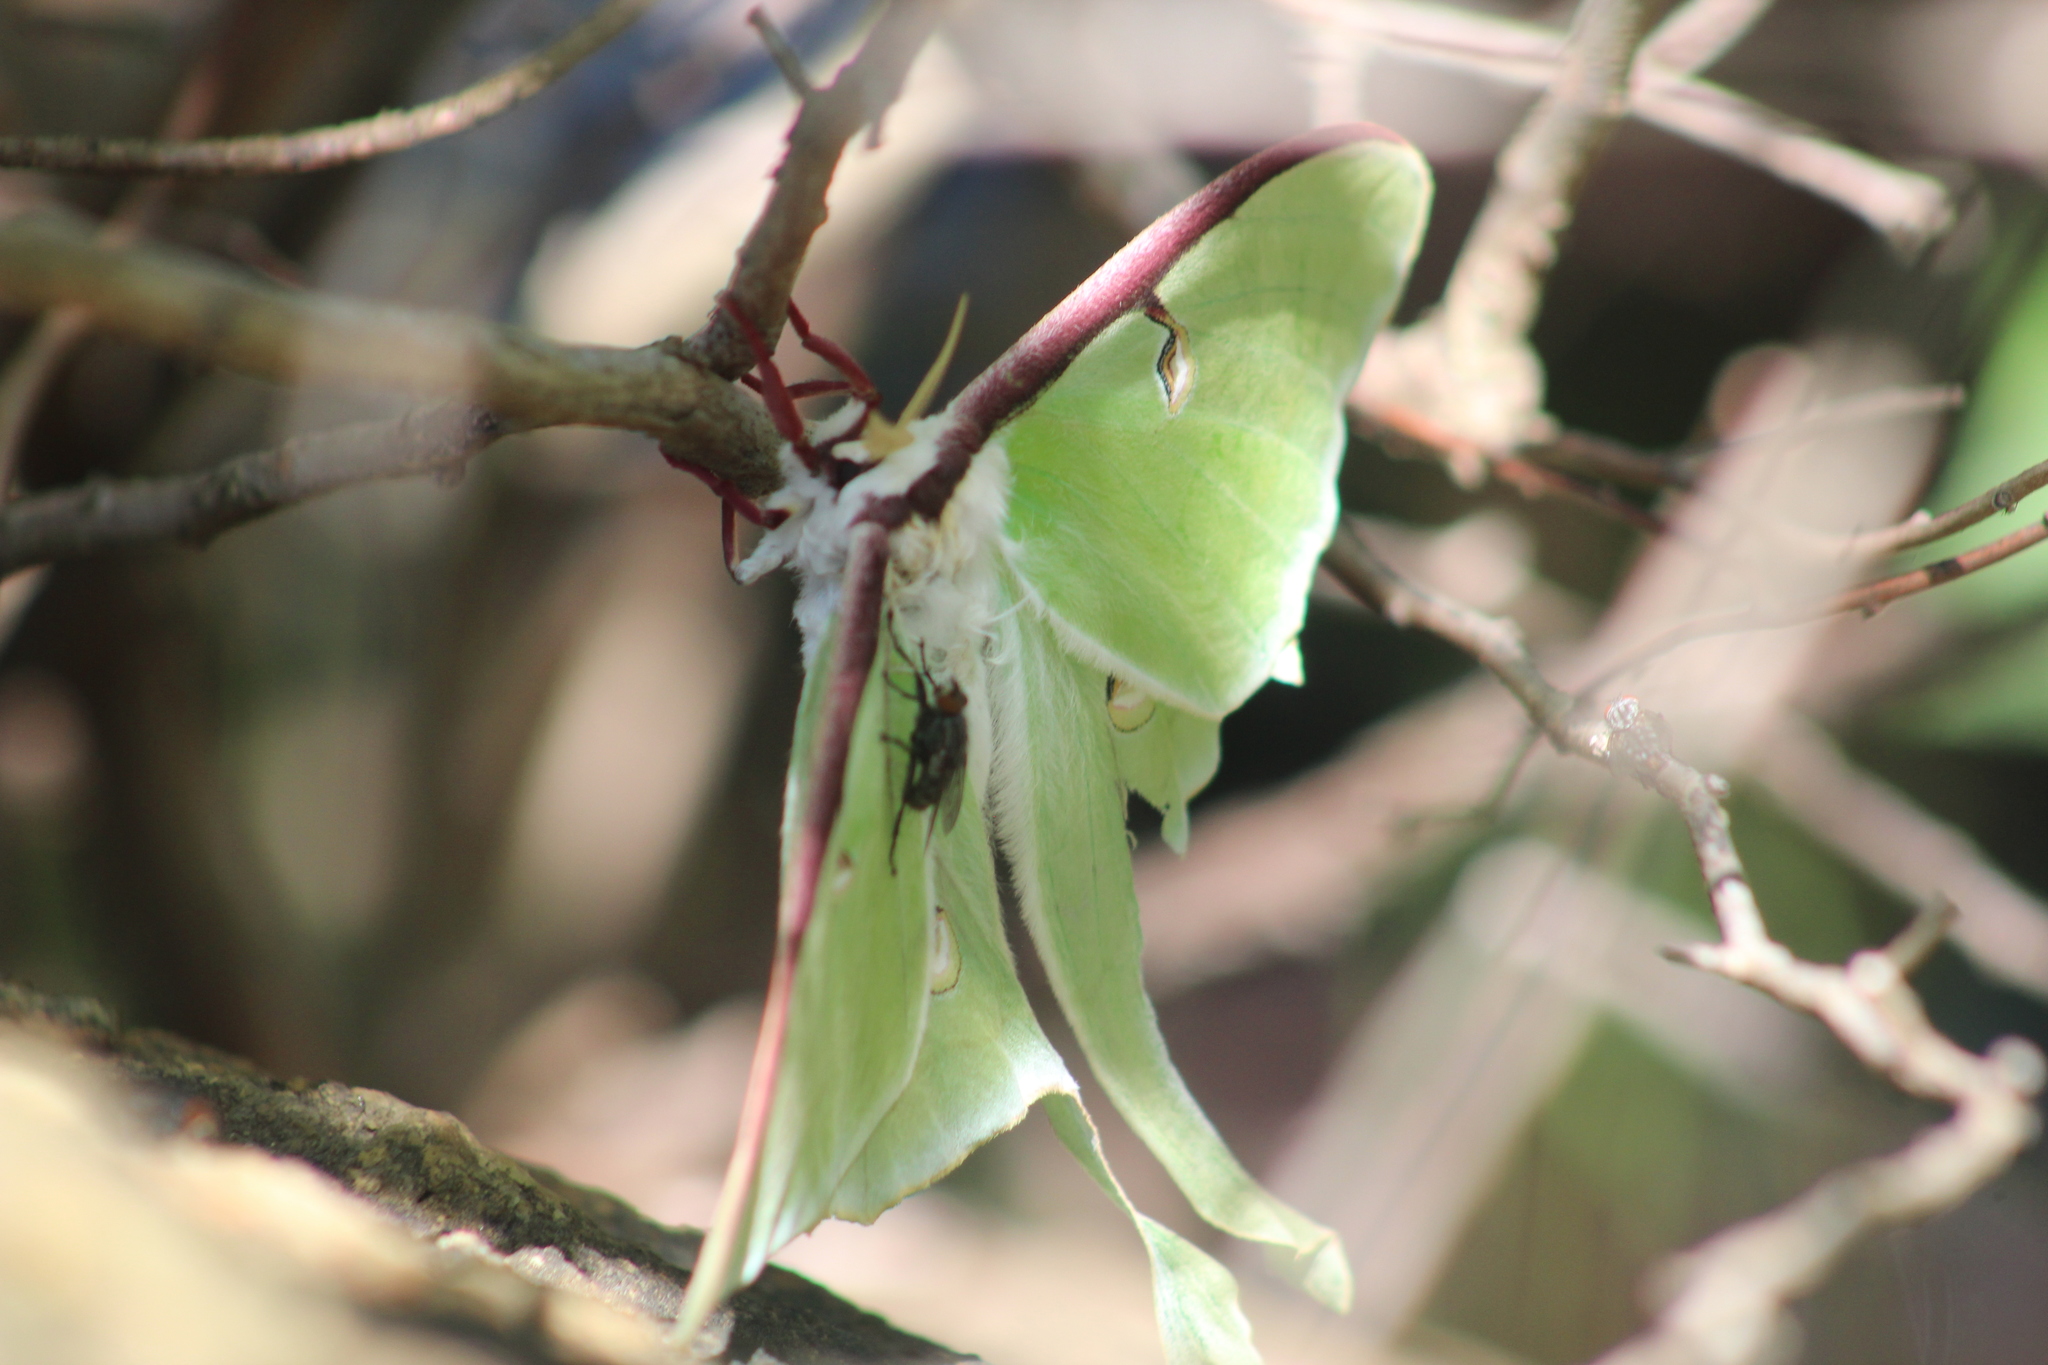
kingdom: Animalia
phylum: Arthropoda
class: Insecta
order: Lepidoptera
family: Saturniidae
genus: Actias
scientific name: Actias luna
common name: Luna moth
